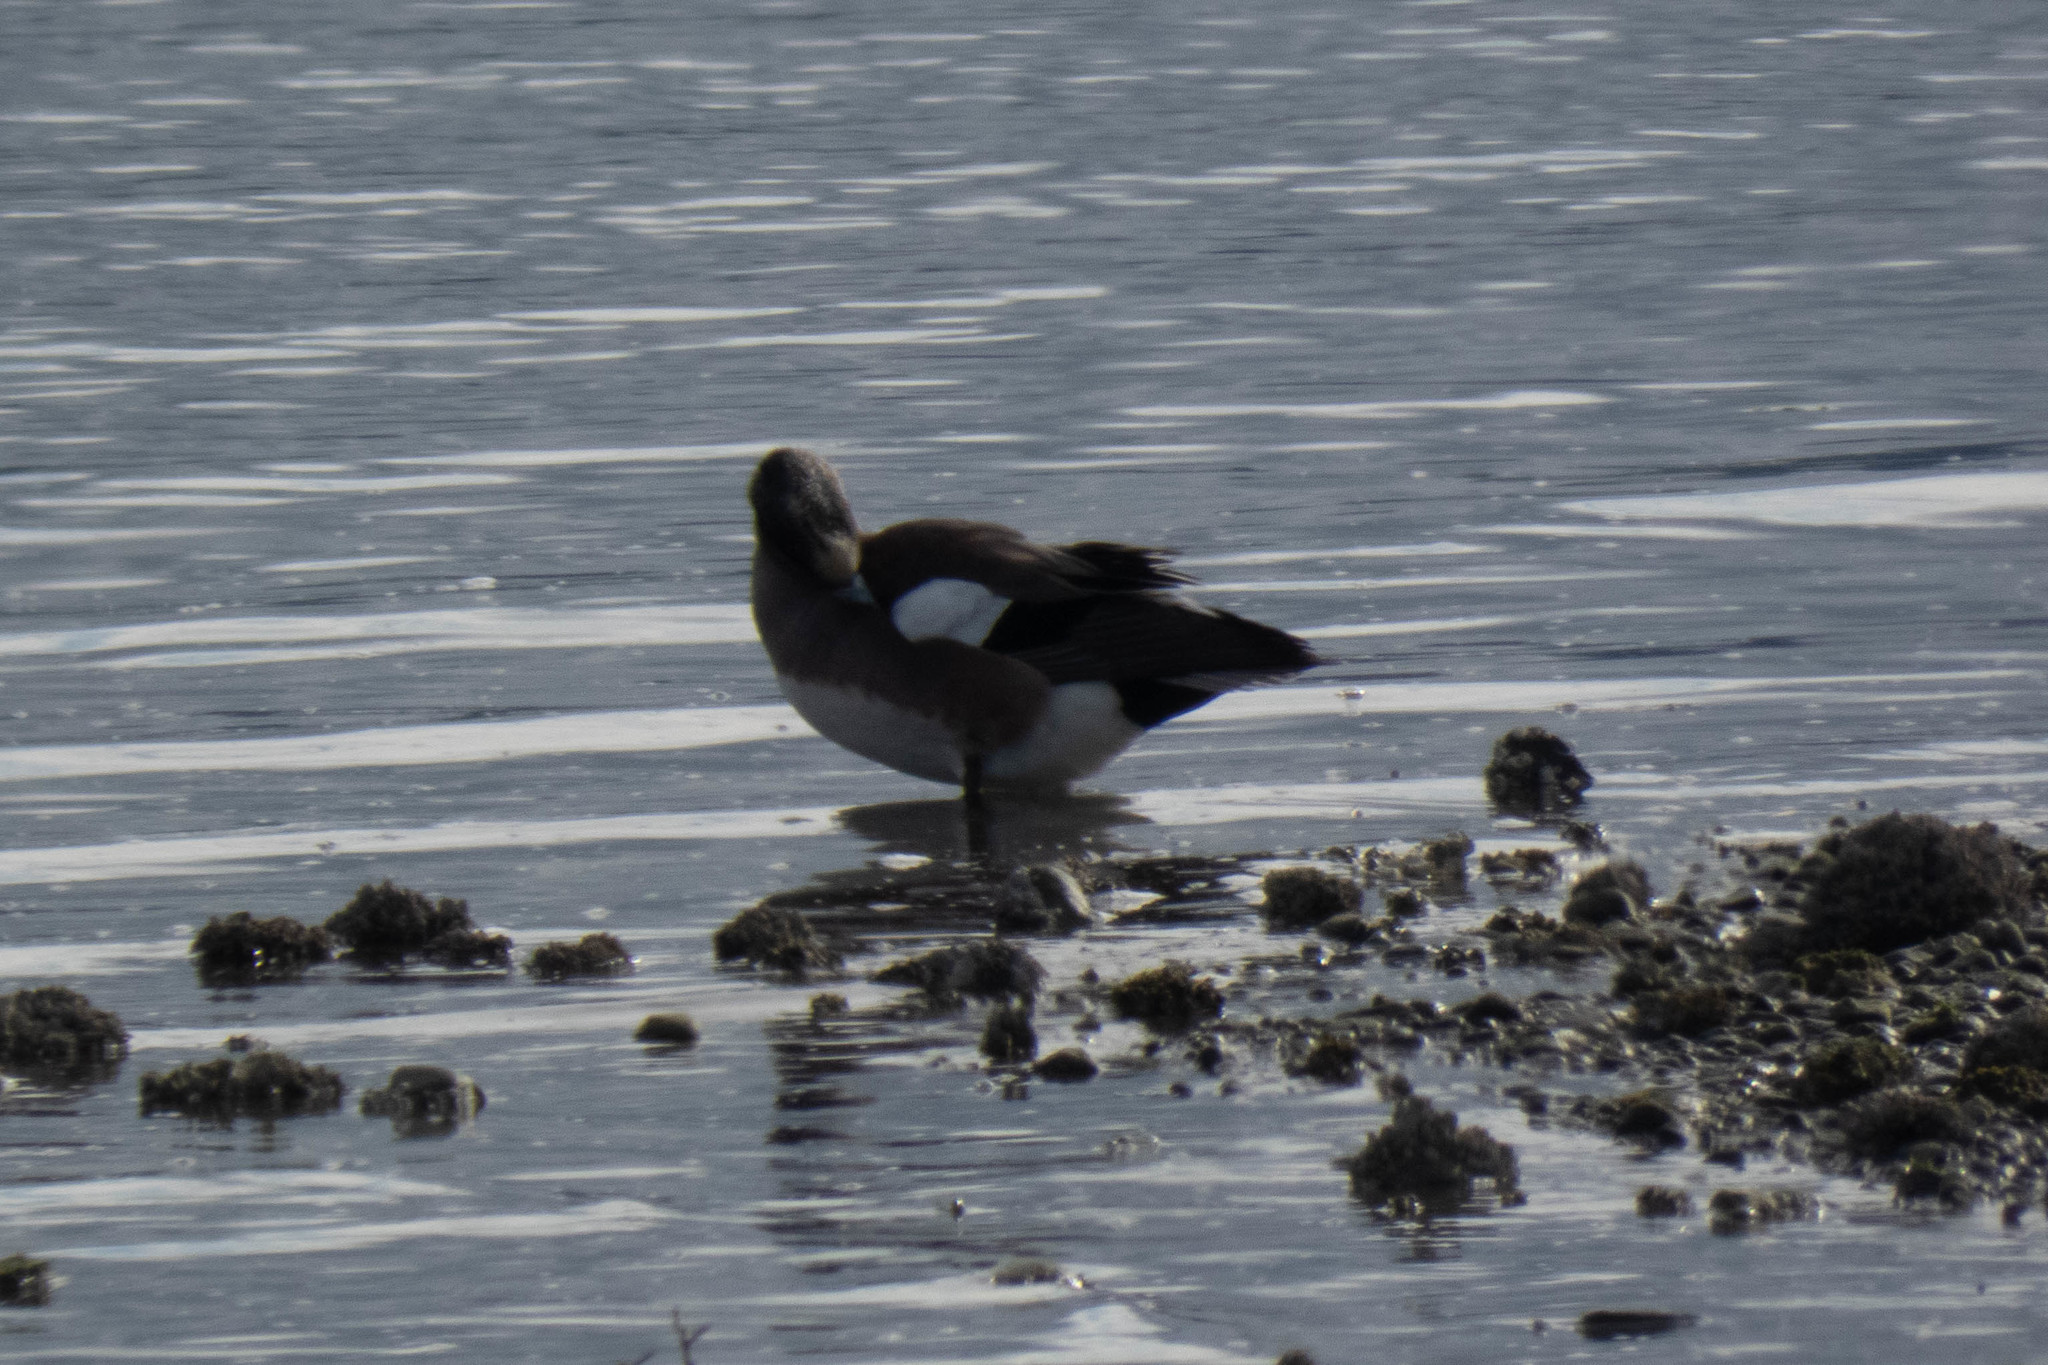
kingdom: Animalia
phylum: Chordata
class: Aves
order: Anseriformes
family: Anatidae
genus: Mareca
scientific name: Mareca americana
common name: American wigeon
